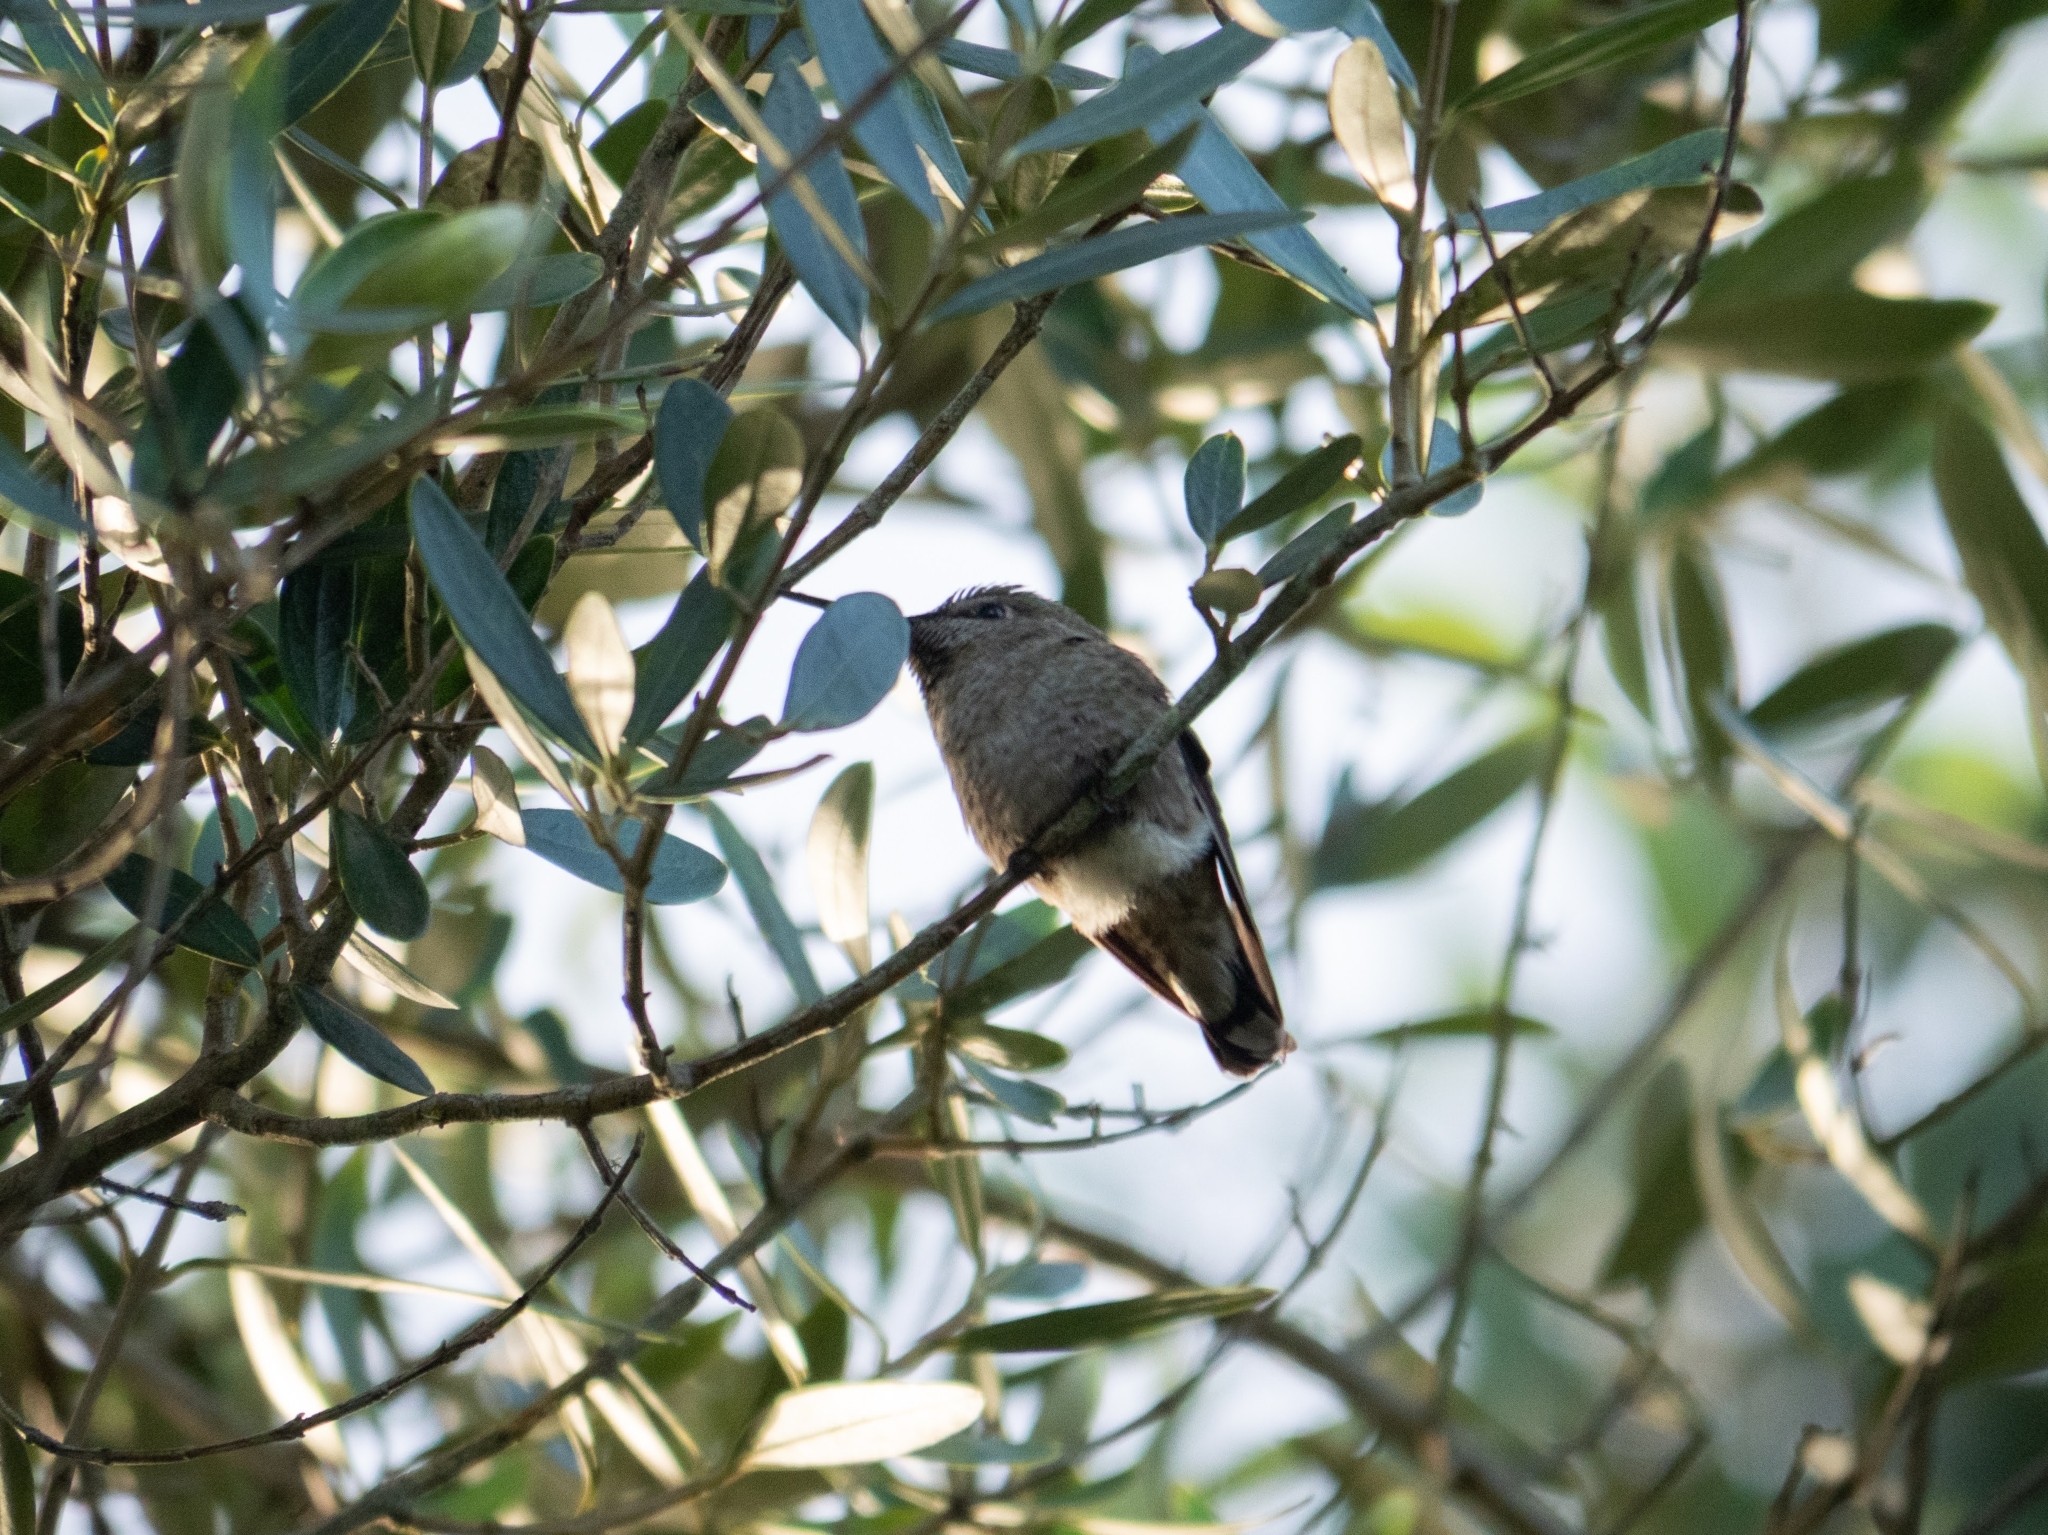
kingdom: Animalia
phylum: Chordata
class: Aves
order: Apodiformes
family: Trochilidae
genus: Calypte
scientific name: Calypte anna
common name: Anna's hummingbird
